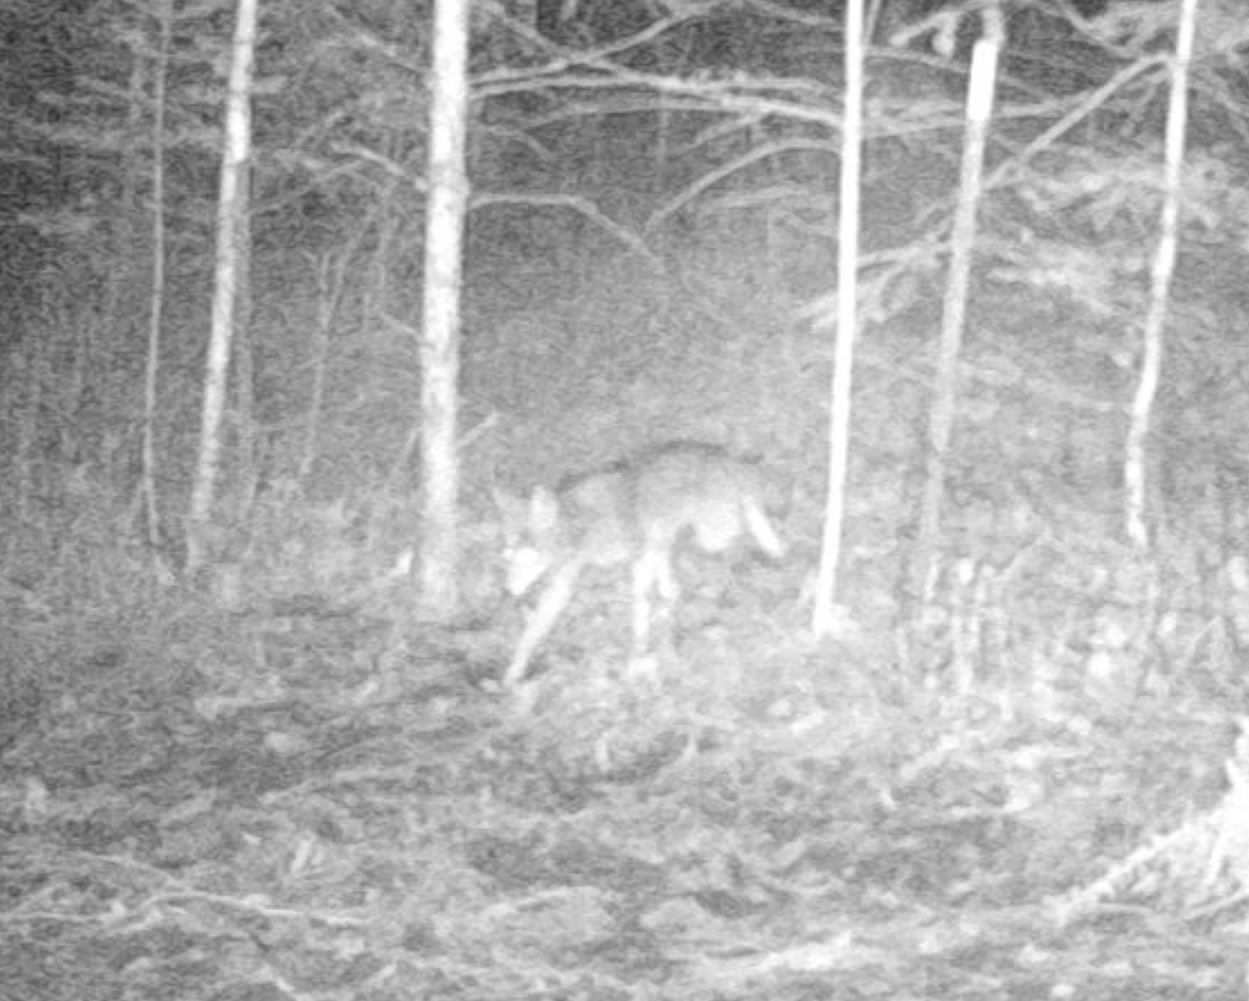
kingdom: Animalia
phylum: Chordata
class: Mammalia
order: Carnivora
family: Canidae
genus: Canis
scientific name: Canis latrans
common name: Coyote
